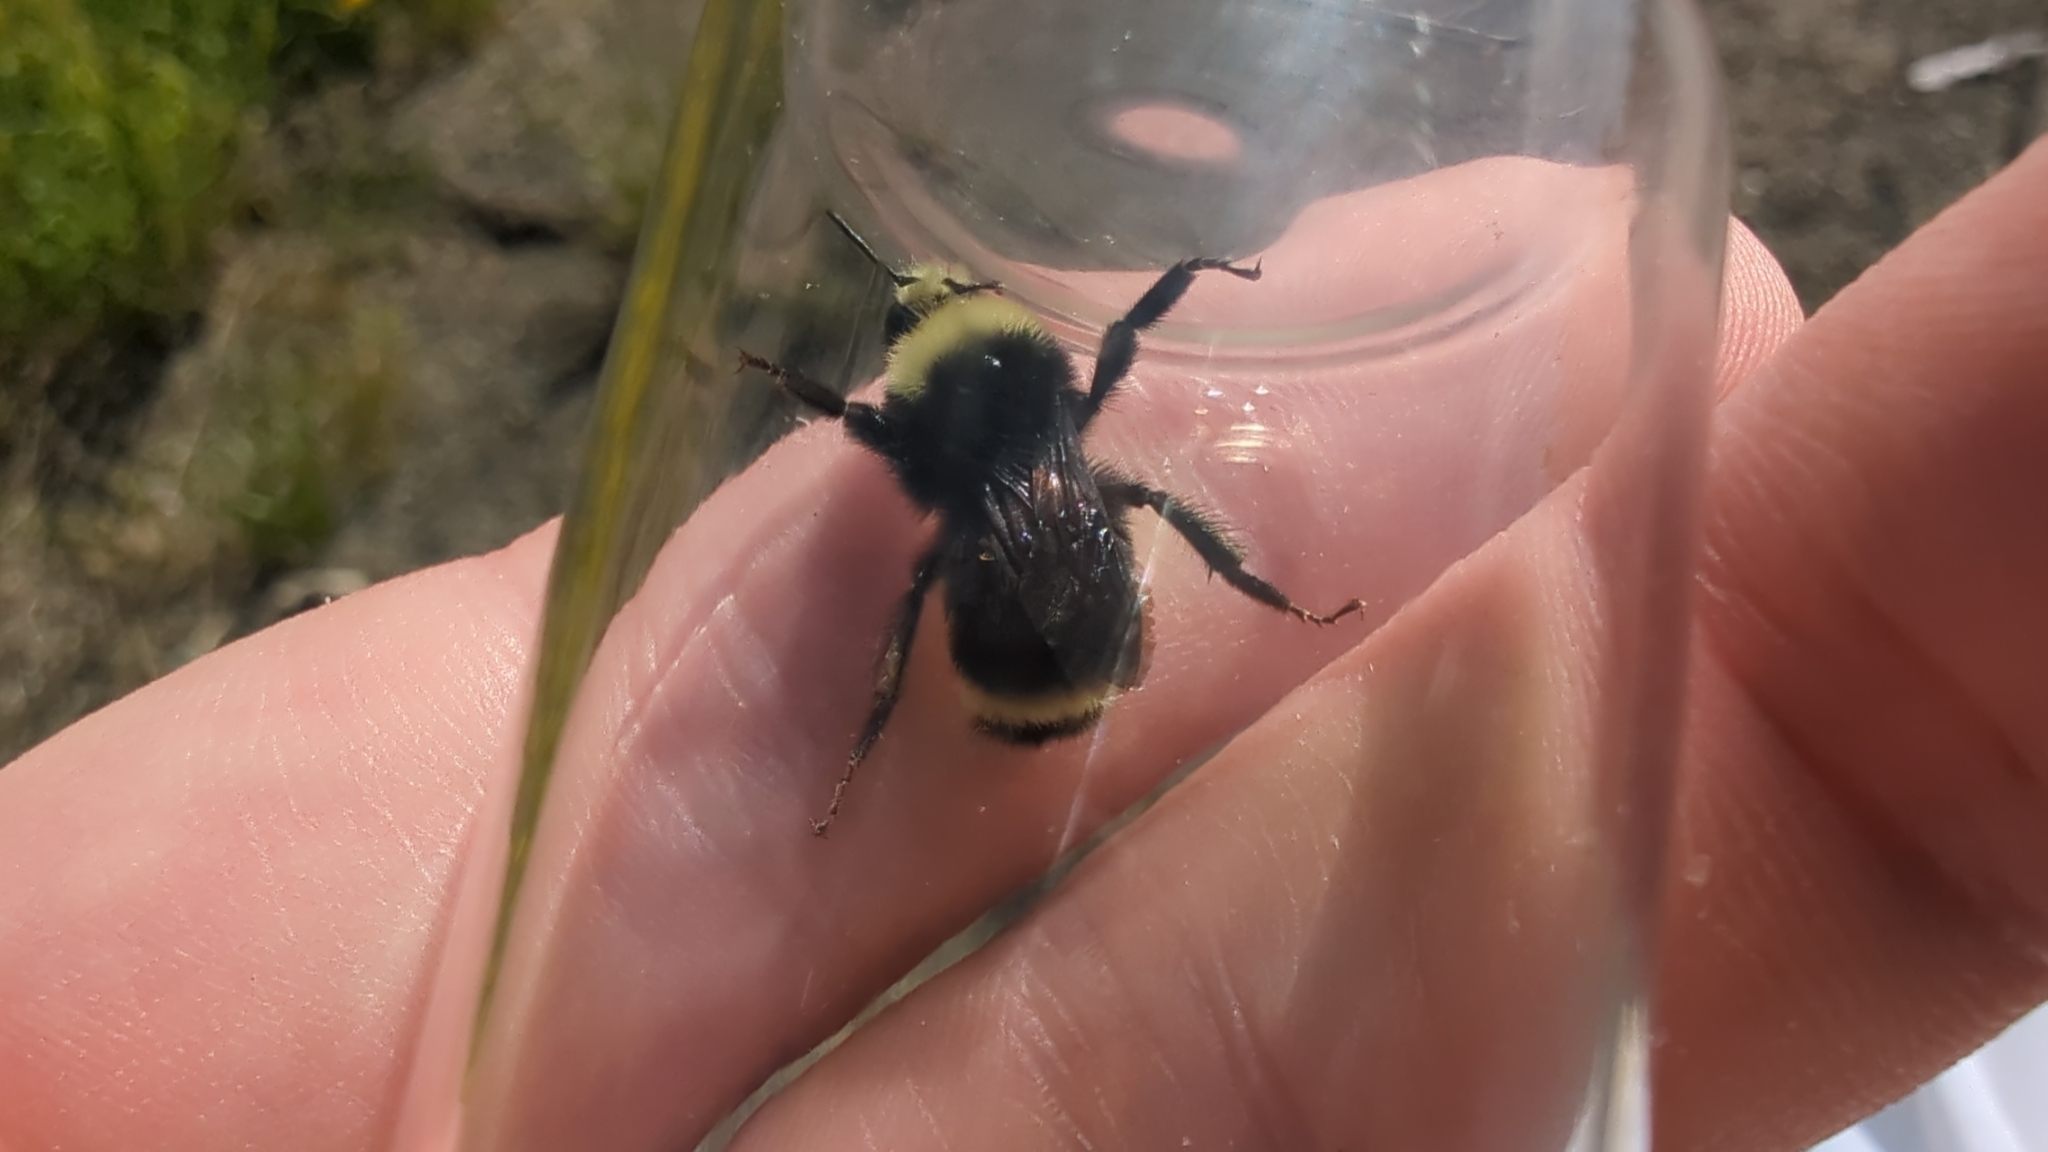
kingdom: Animalia
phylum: Arthropoda
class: Insecta
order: Hymenoptera
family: Apidae
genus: Bombus
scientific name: Bombus vosnesenskii
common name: Vosnesensky bumble bee
